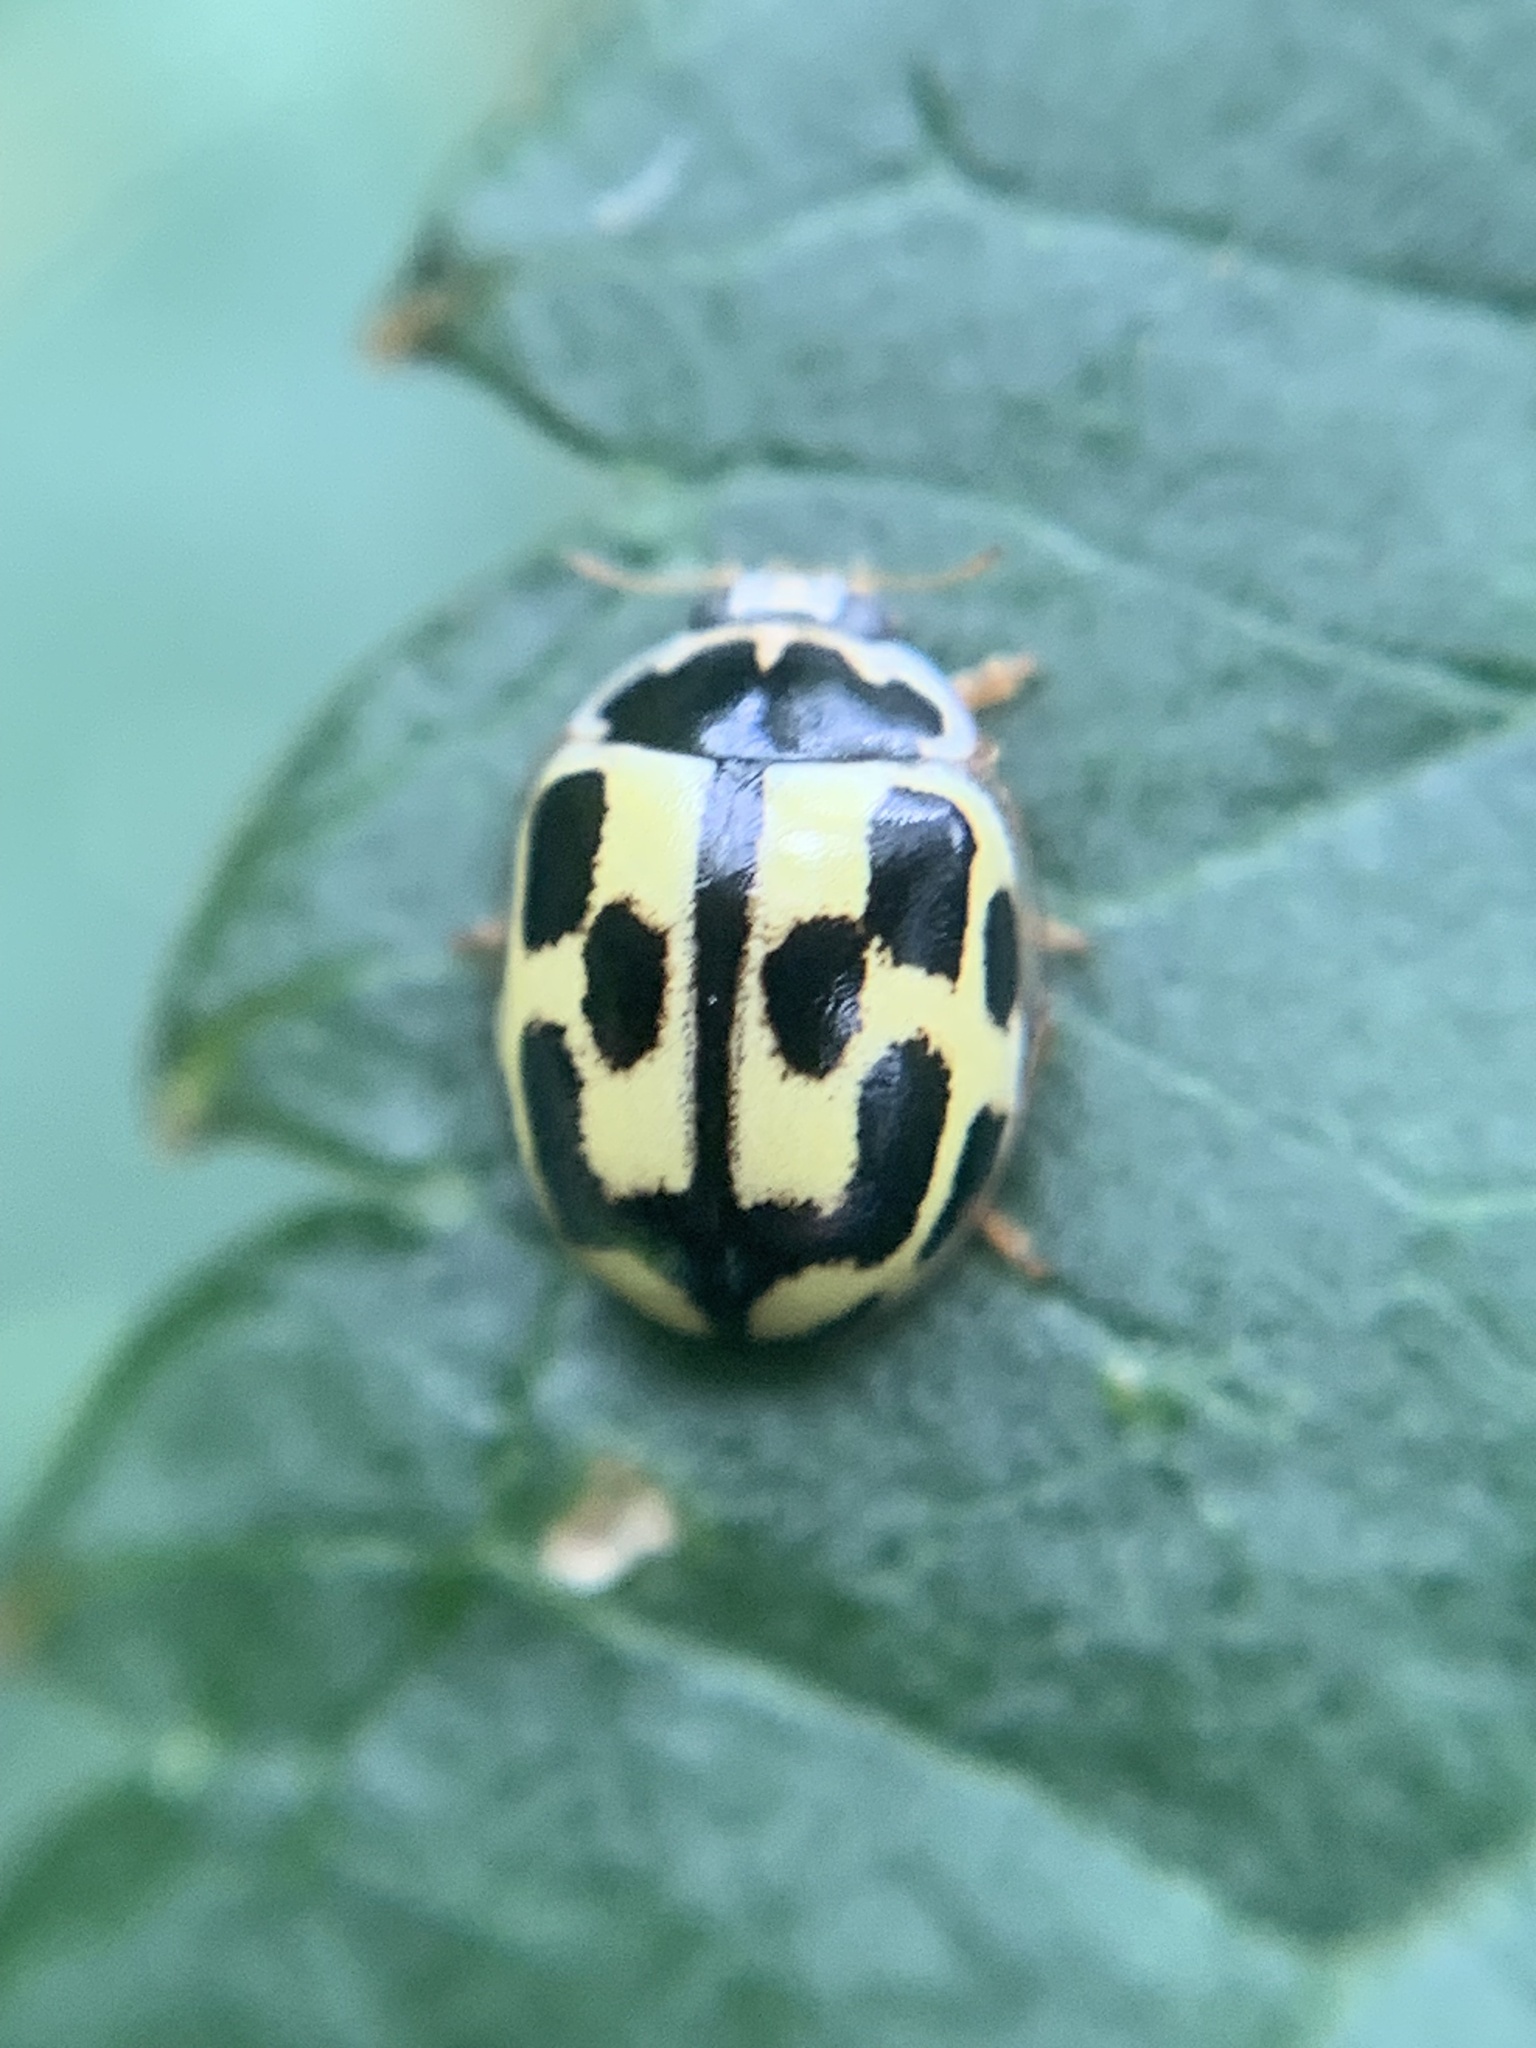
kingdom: Animalia
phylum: Arthropoda
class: Insecta
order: Coleoptera
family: Coccinellidae
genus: Propylaea
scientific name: Propylaea quatuordecimpunctata
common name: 14-spotted ladybird beetle
